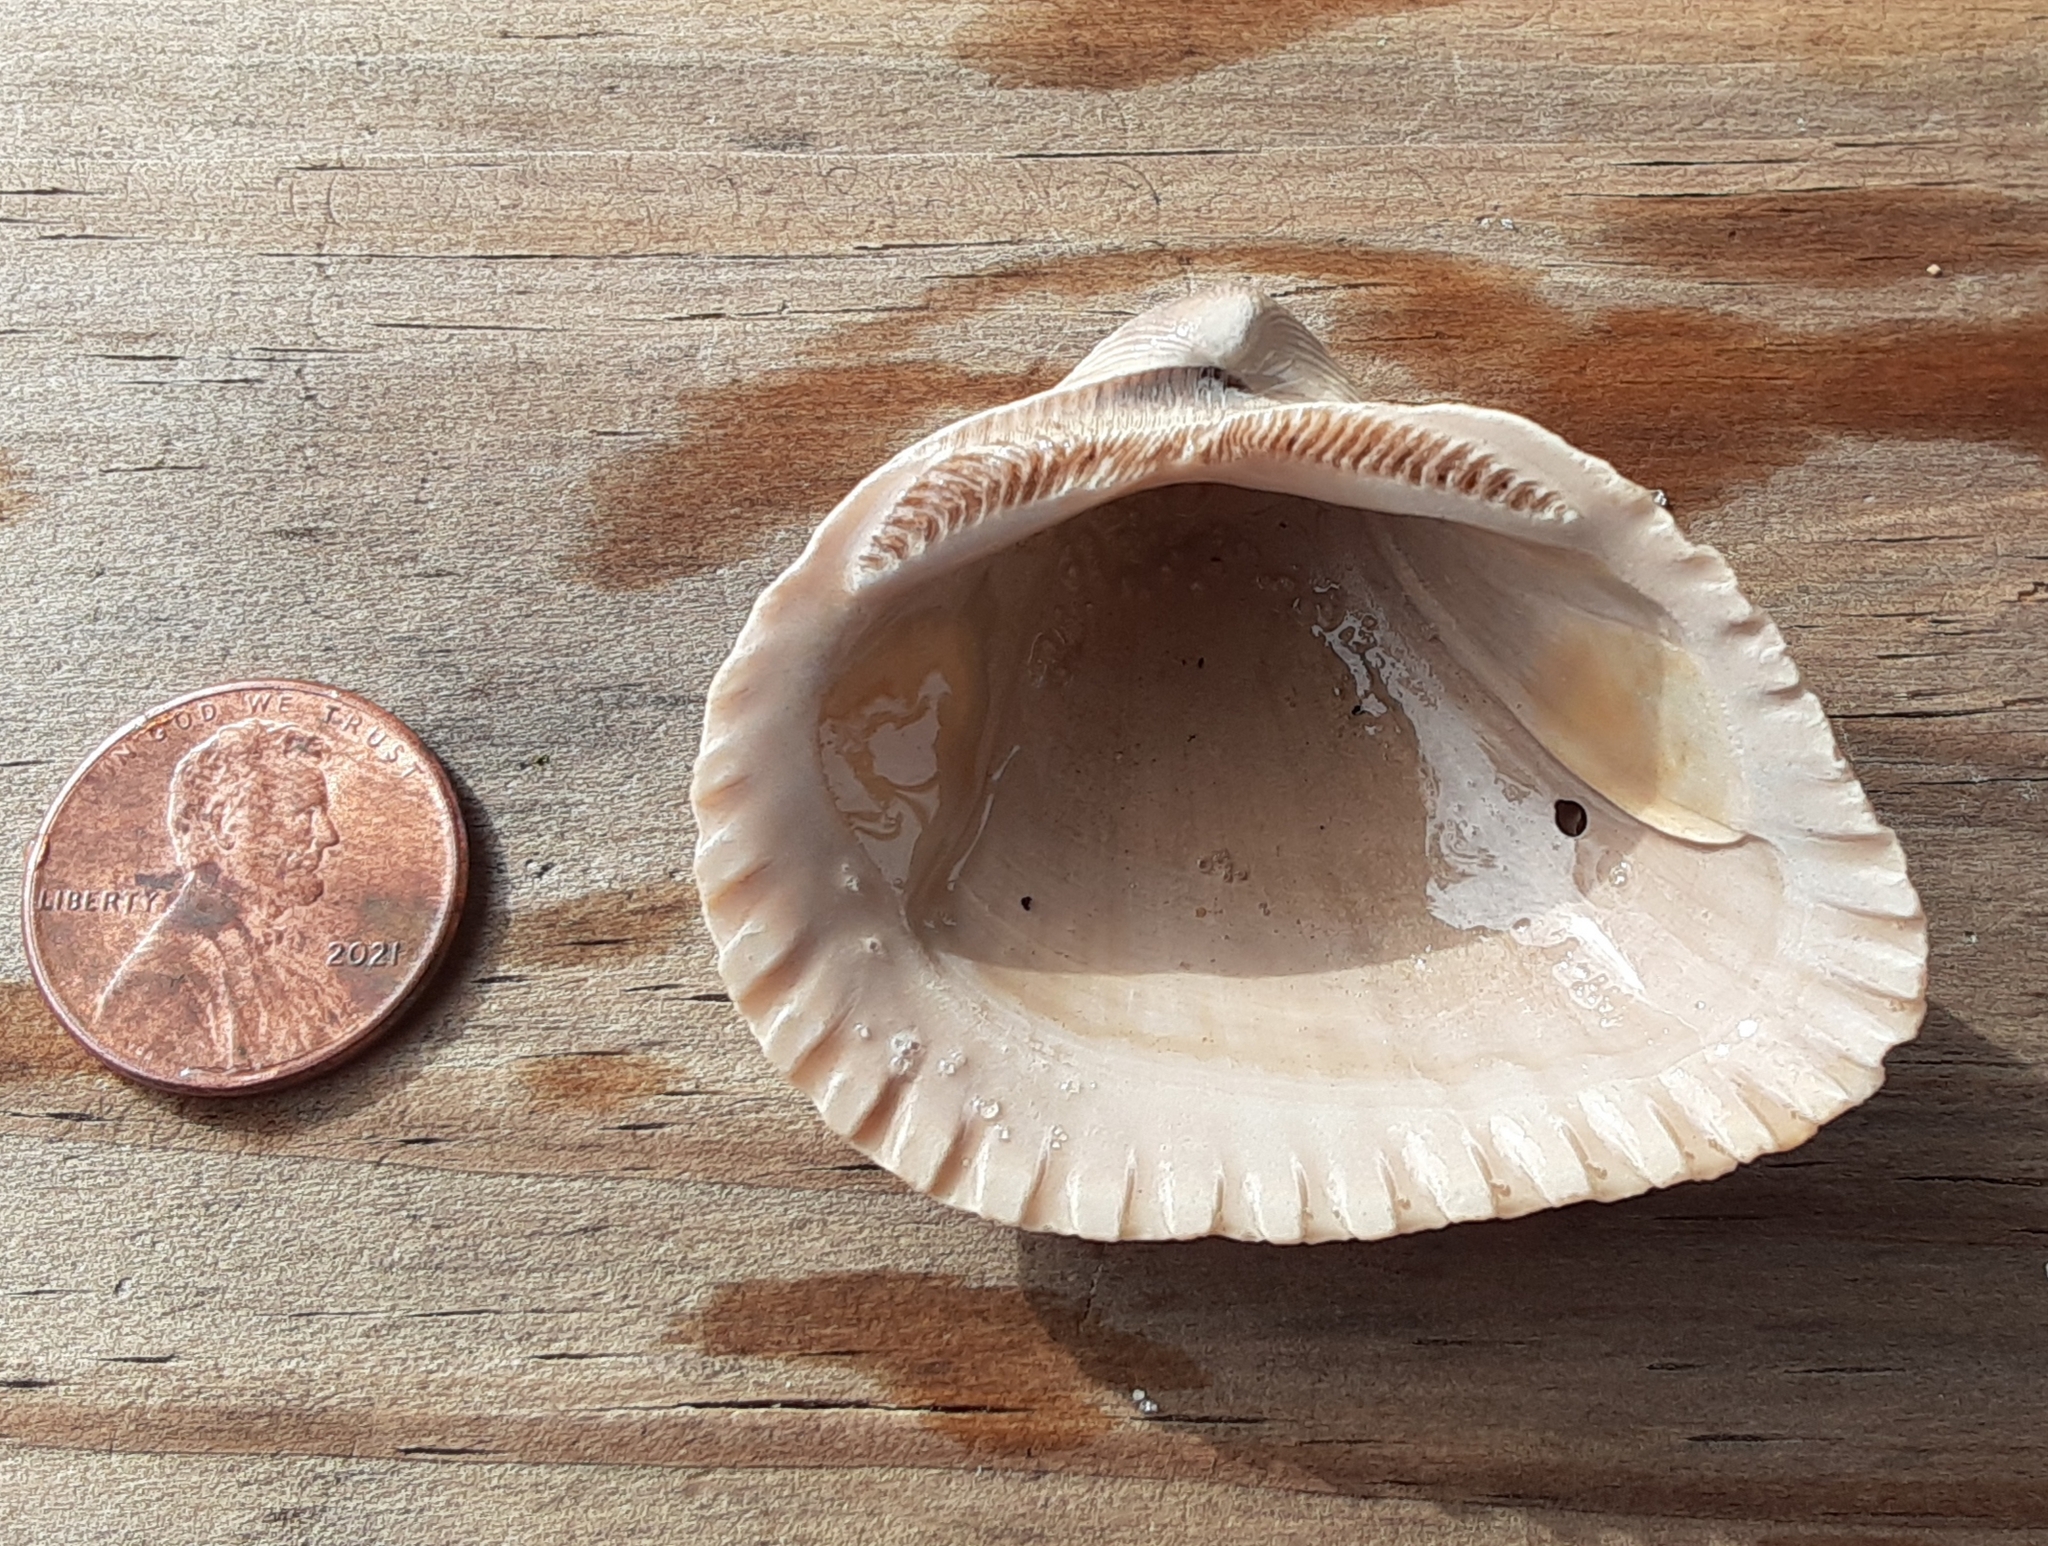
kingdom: Animalia
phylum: Mollusca
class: Bivalvia
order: Arcida
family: Noetiidae
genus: Noetia
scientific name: Noetia ponderosa
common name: Ponderous ark
